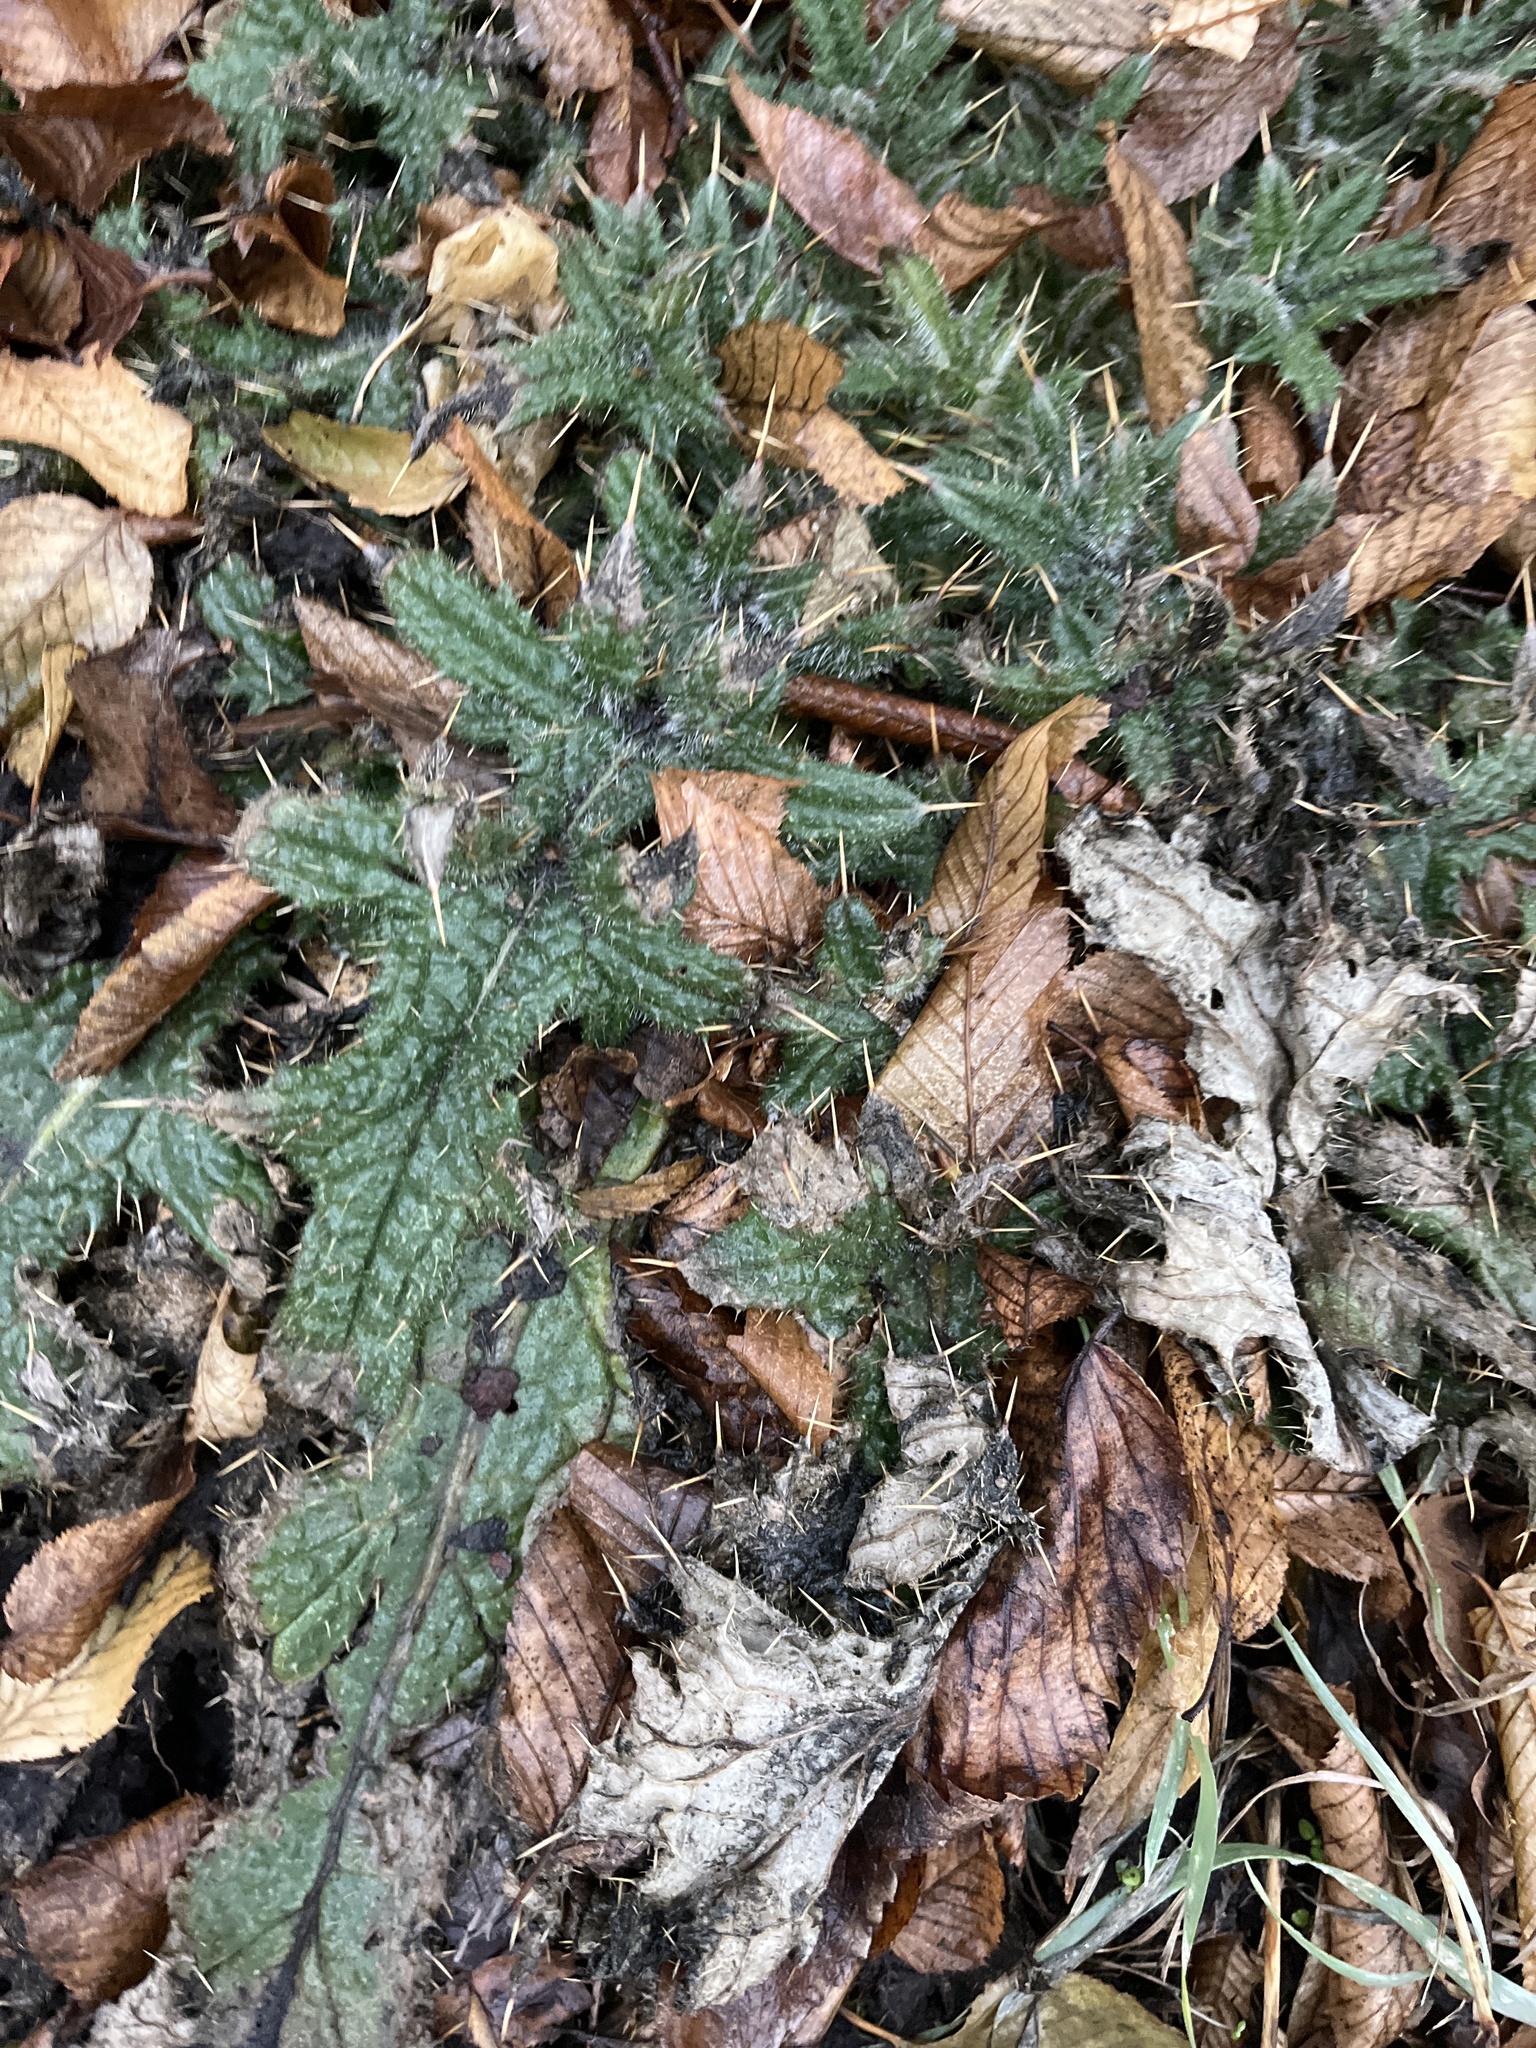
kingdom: Plantae
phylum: Tracheophyta
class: Magnoliopsida
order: Asterales
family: Asteraceae
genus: Cirsium
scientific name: Cirsium vulgare
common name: Bull thistle
